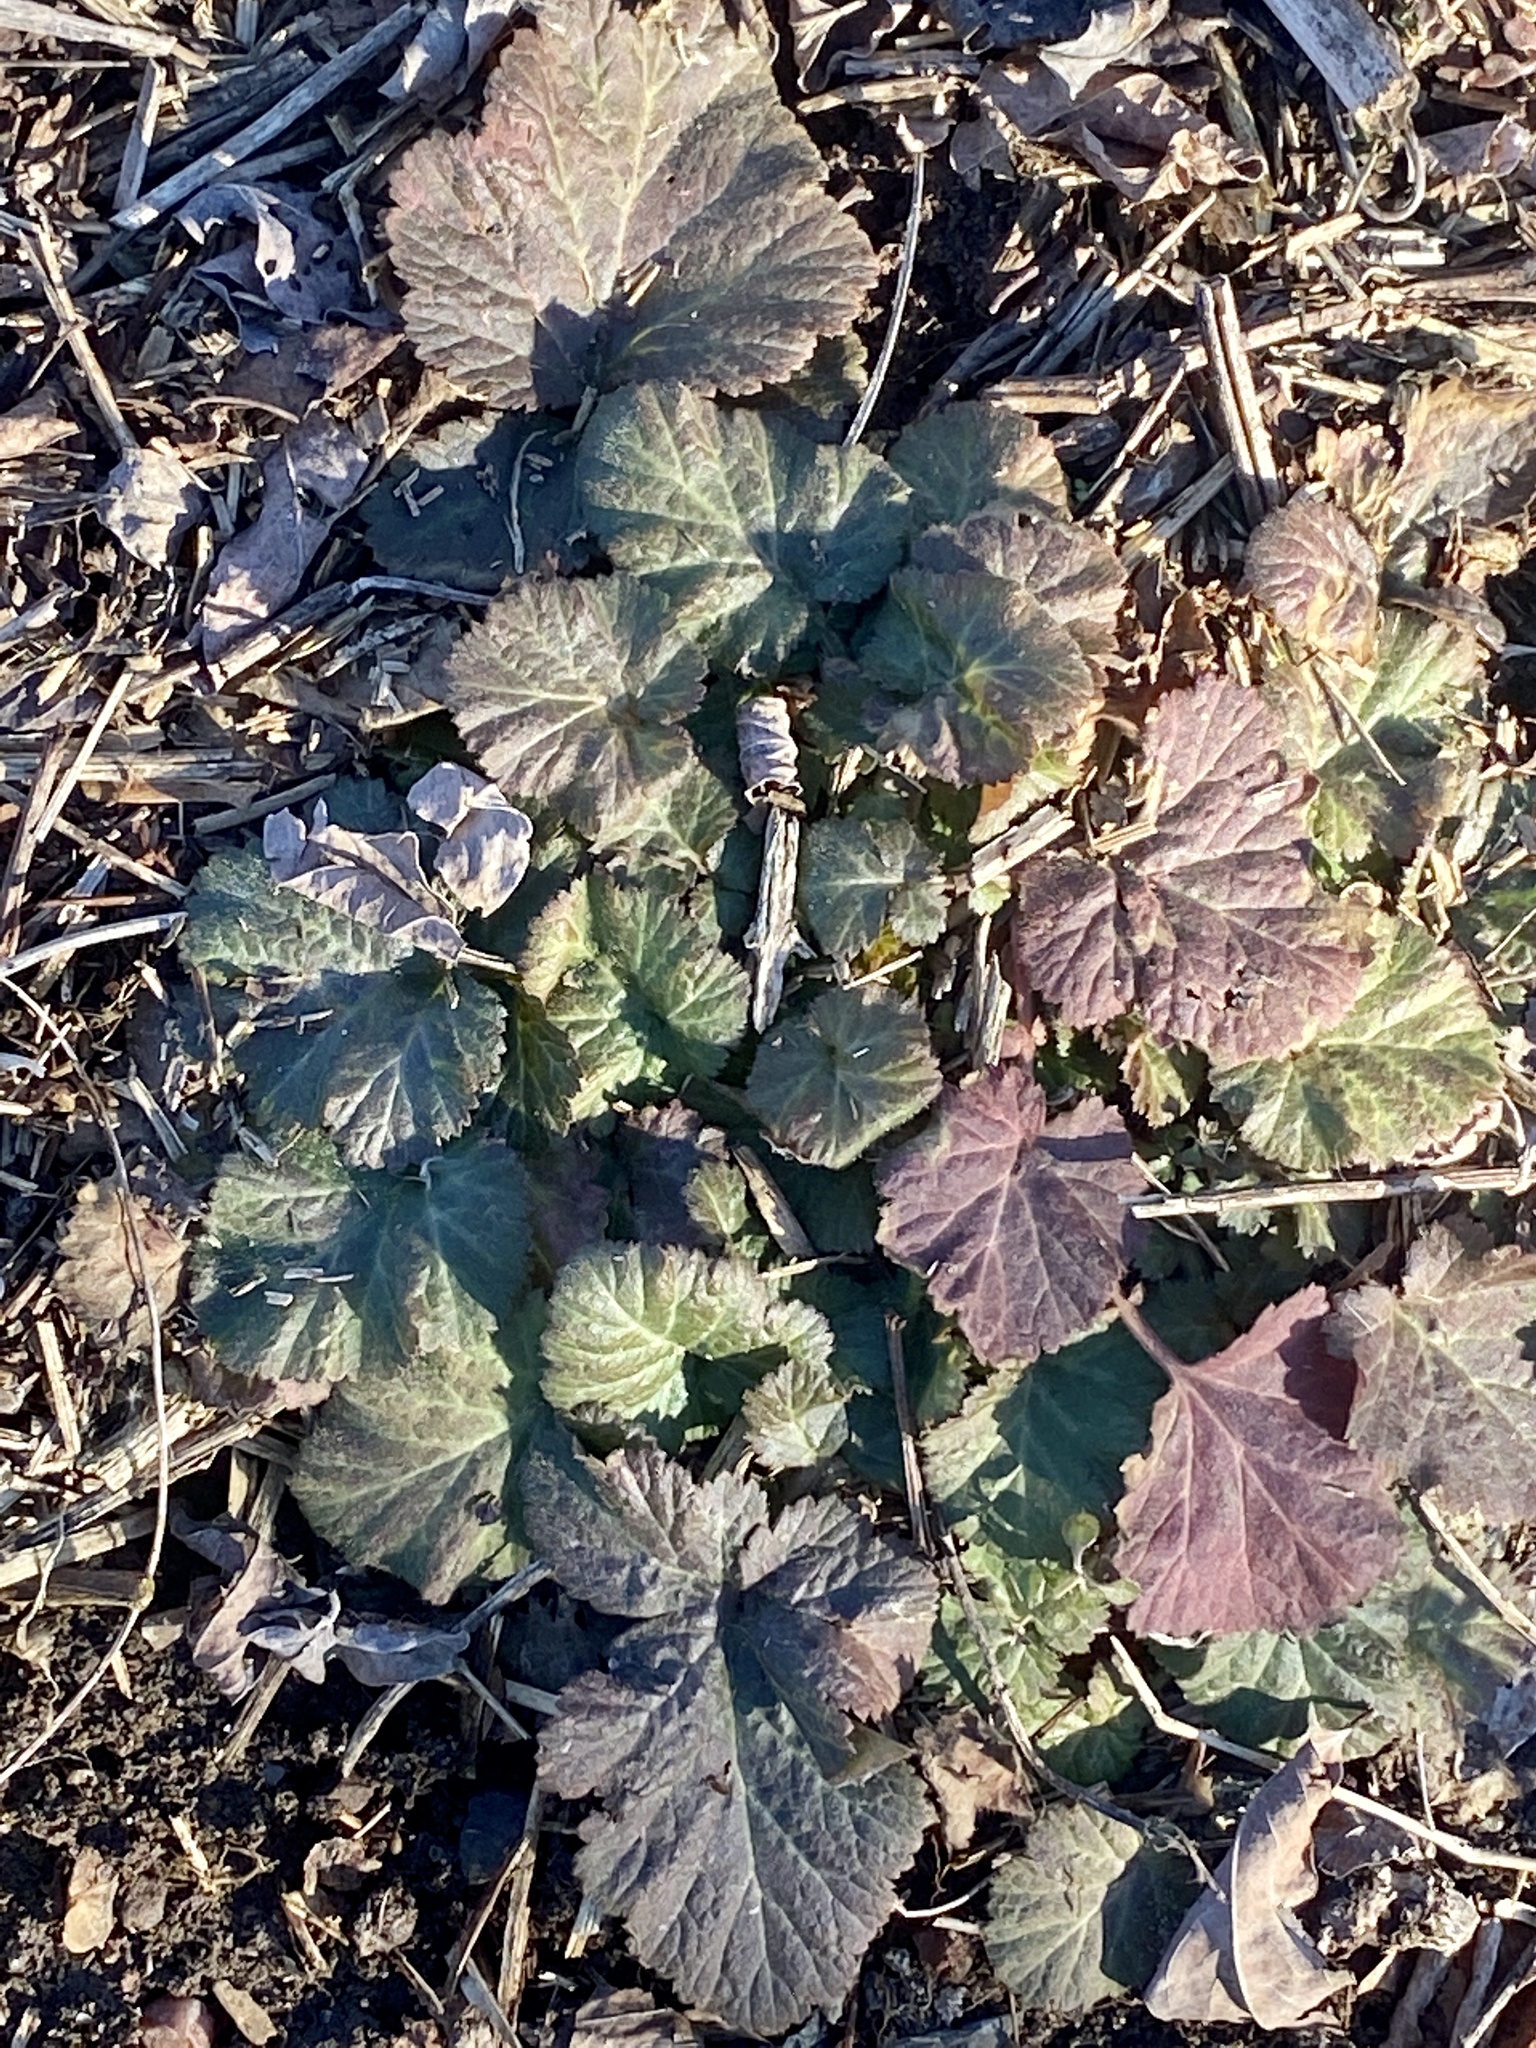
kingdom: Plantae
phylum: Tracheophyta
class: Magnoliopsida
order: Rosales
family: Rosaceae
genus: Geum
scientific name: Geum canadense
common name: White avens
